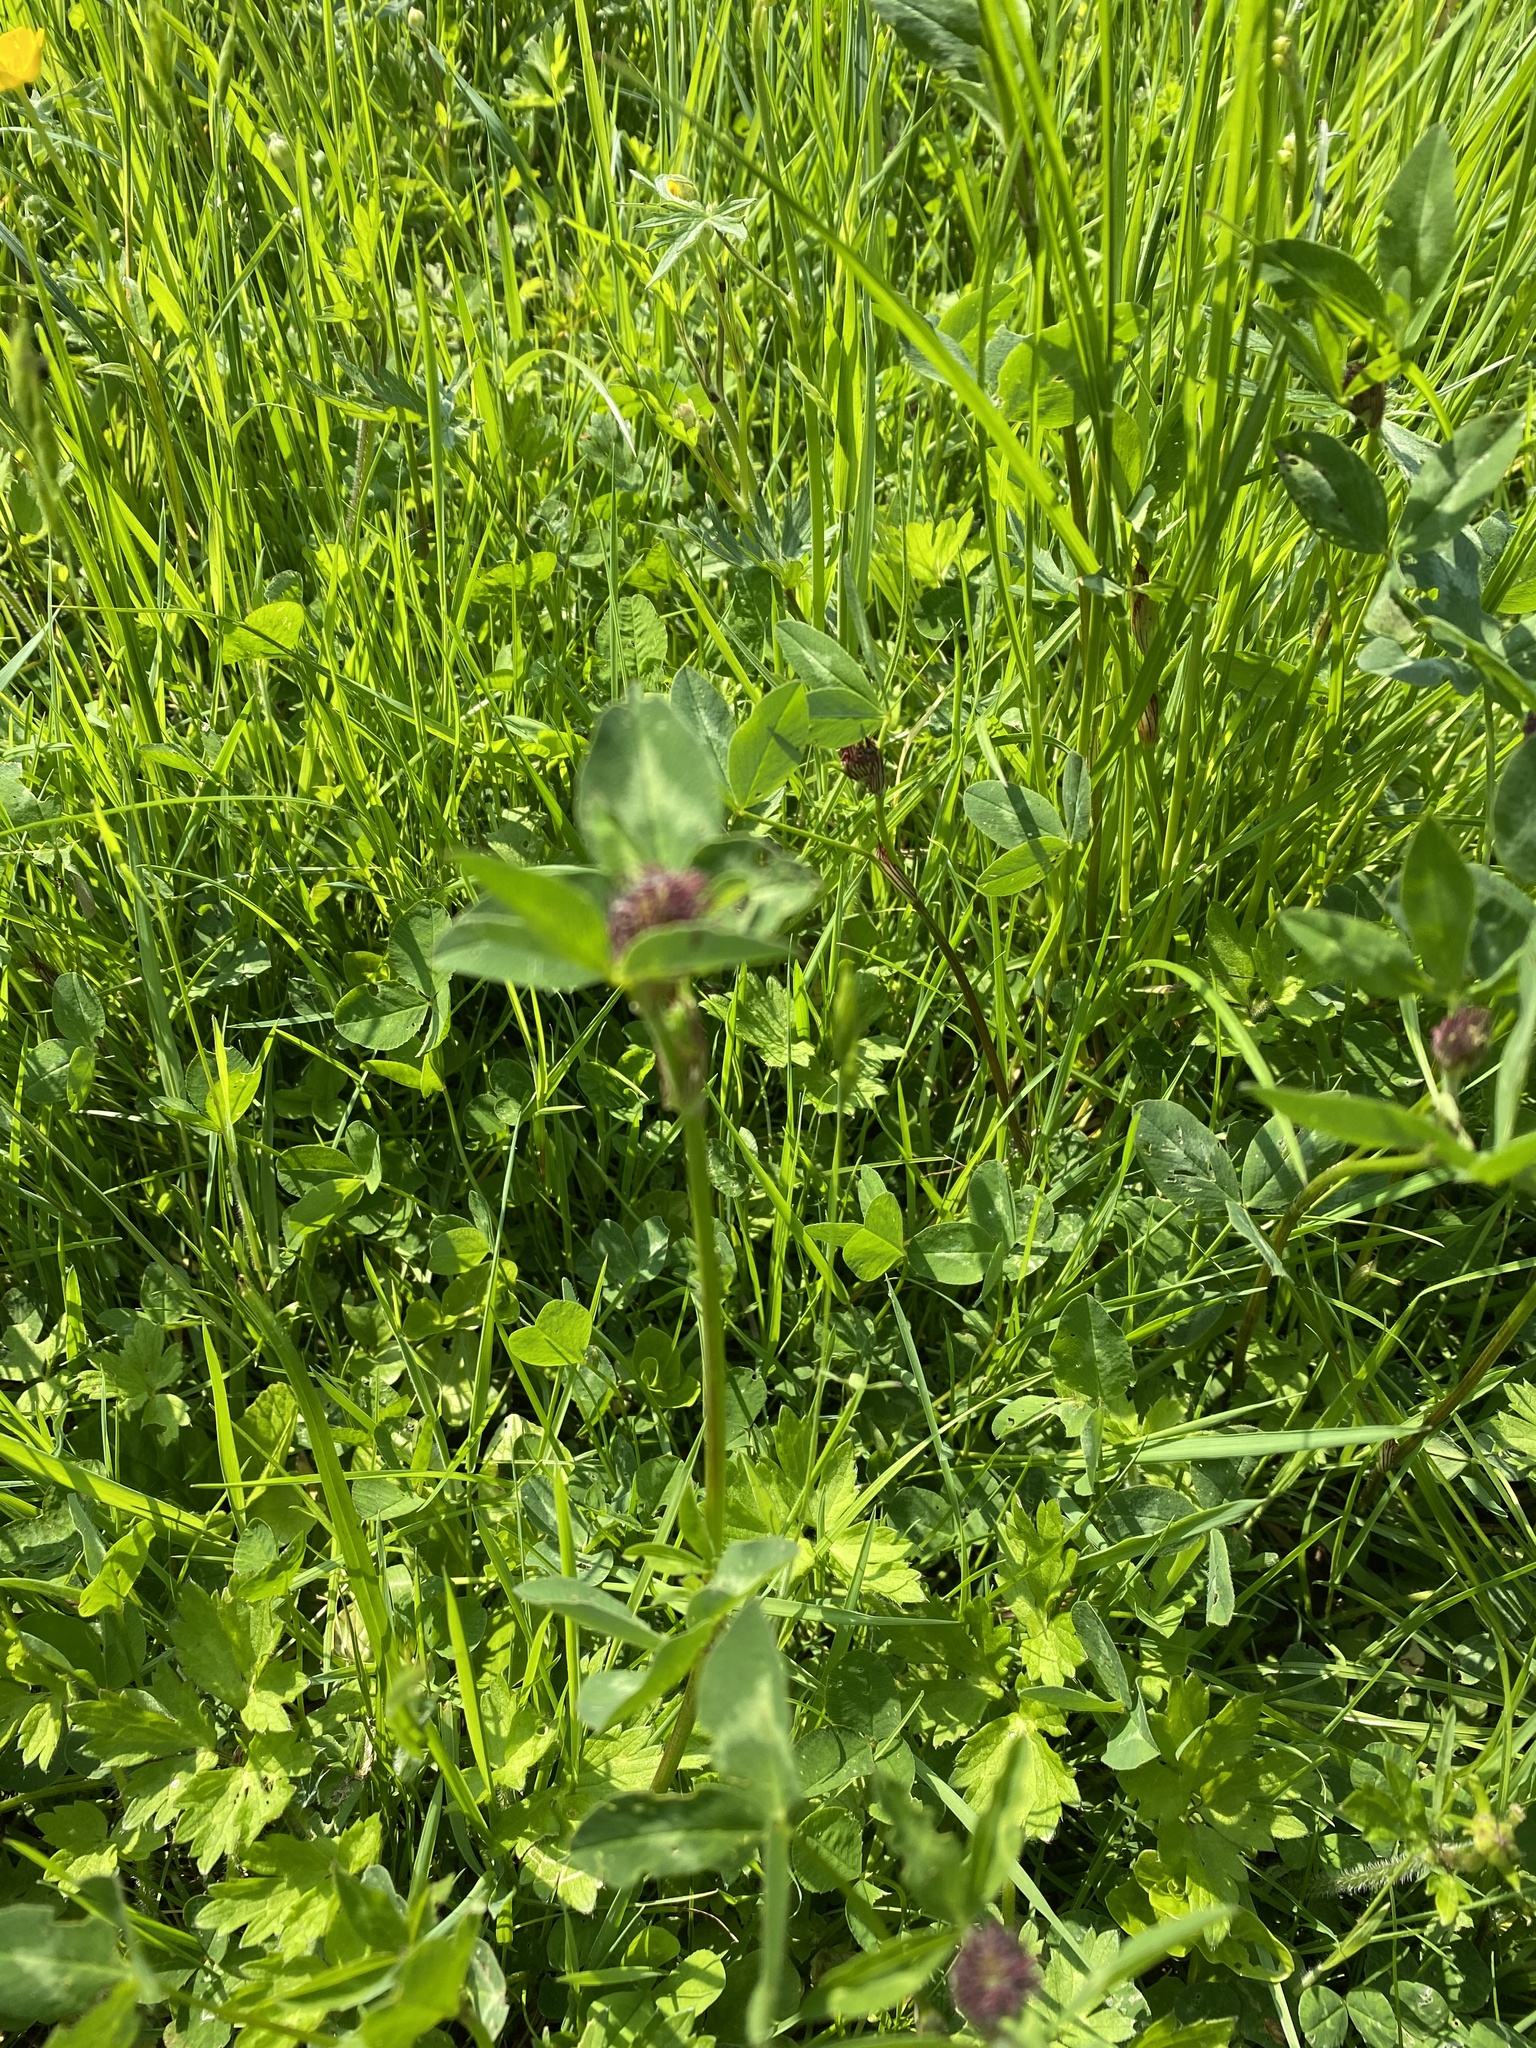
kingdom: Plantae
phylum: Tracheophyta
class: Magnoliopsida
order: Fabales
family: Fabaceae
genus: Trifolium
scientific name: Trifolium pratense
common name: Red clover
